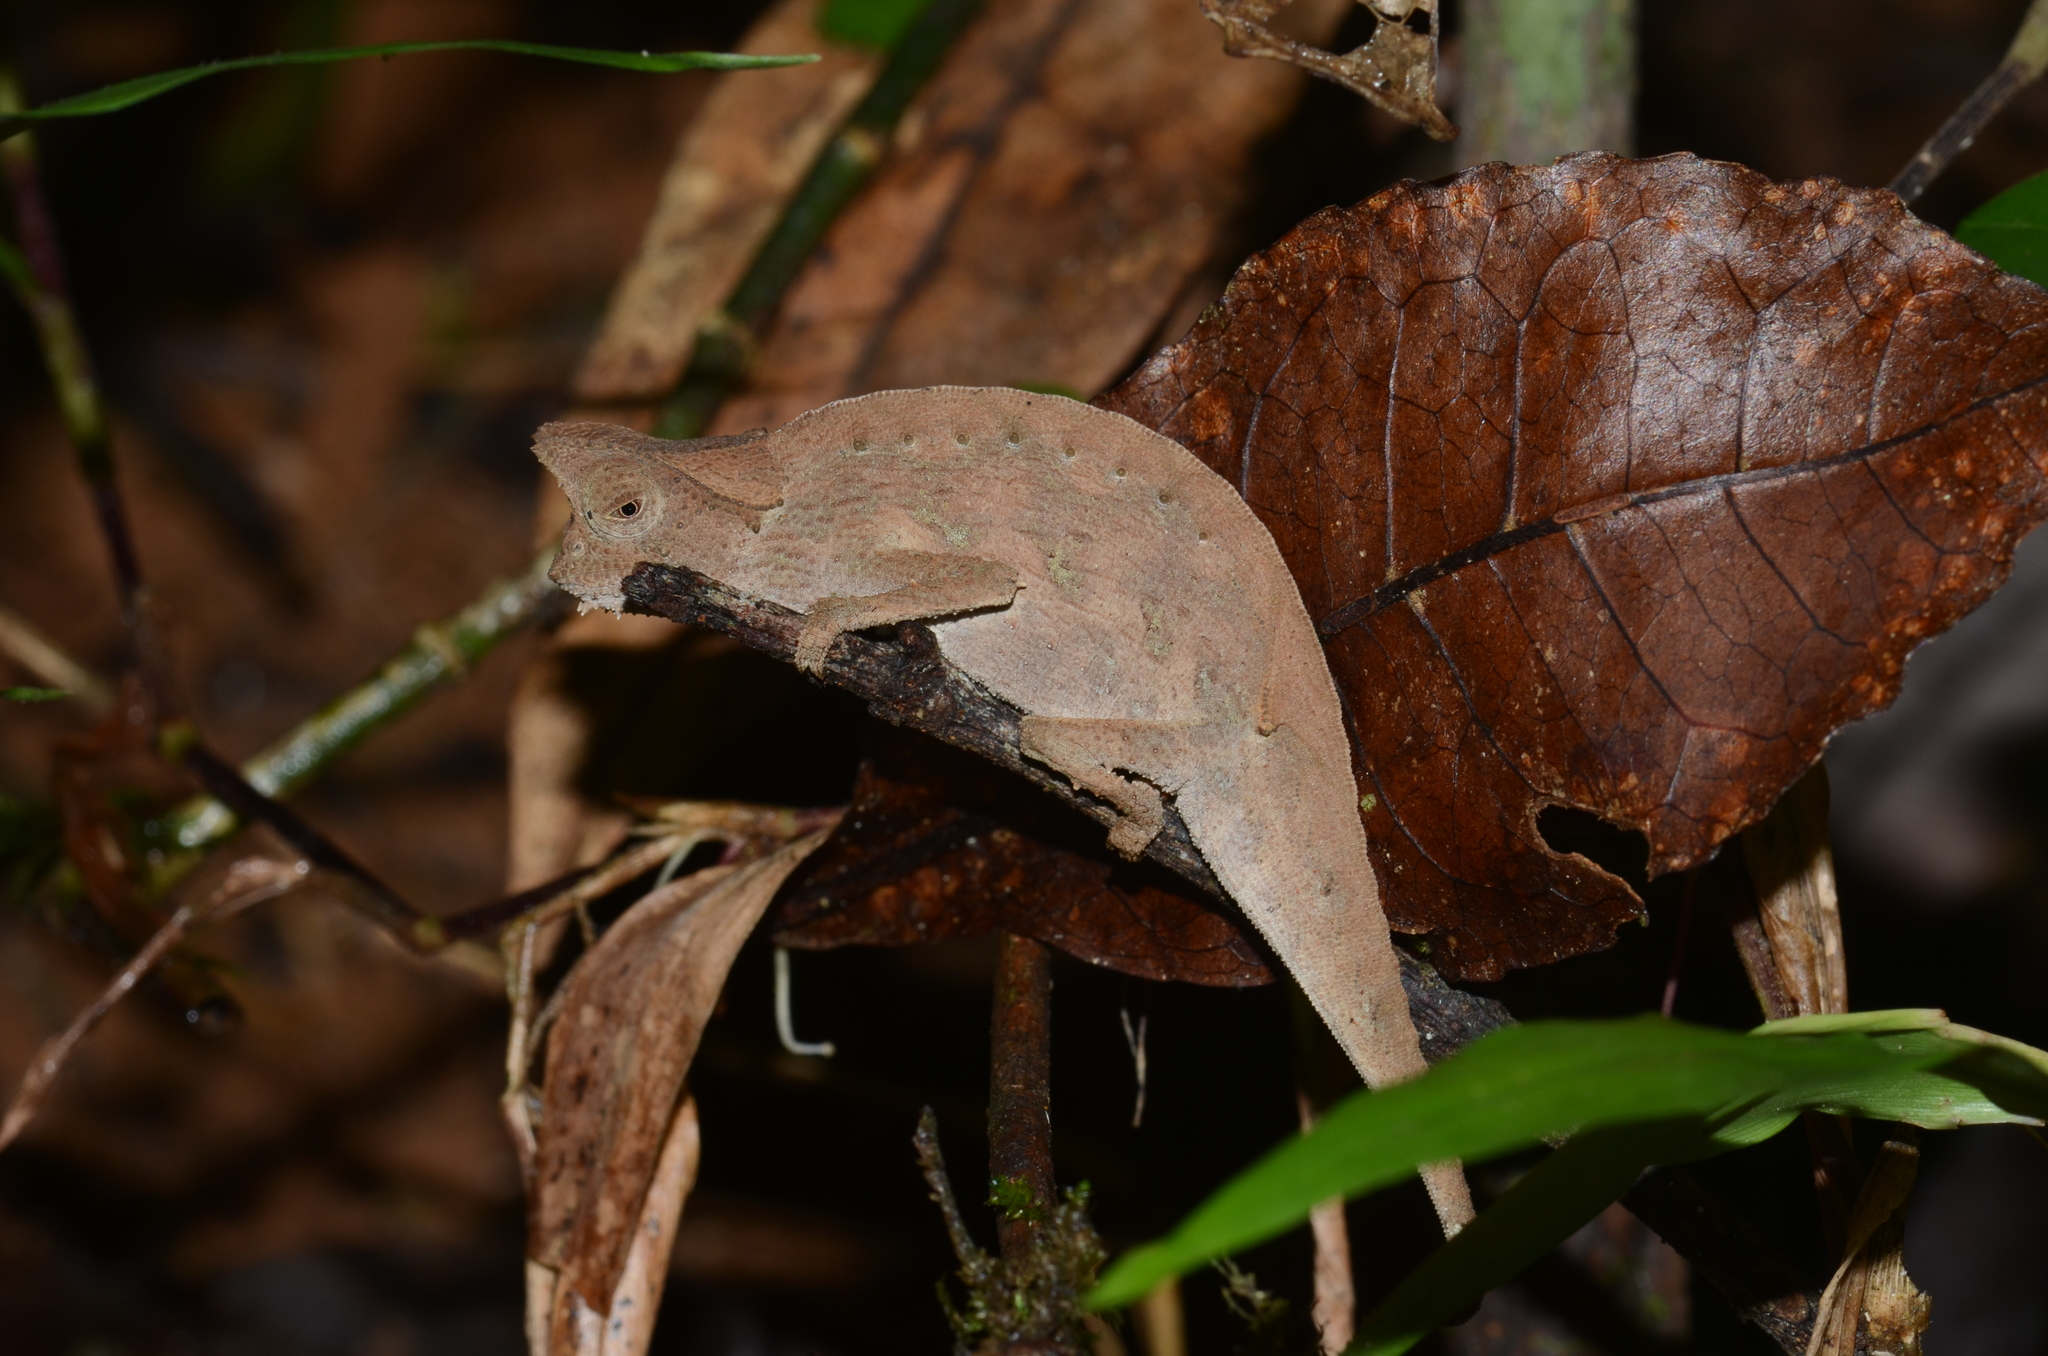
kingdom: Animalia
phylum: Chordata
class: Squamata
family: Chamaeleonidae
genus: Brookesia
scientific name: Brookesia superciliaris
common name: Brown leaf chameleon
